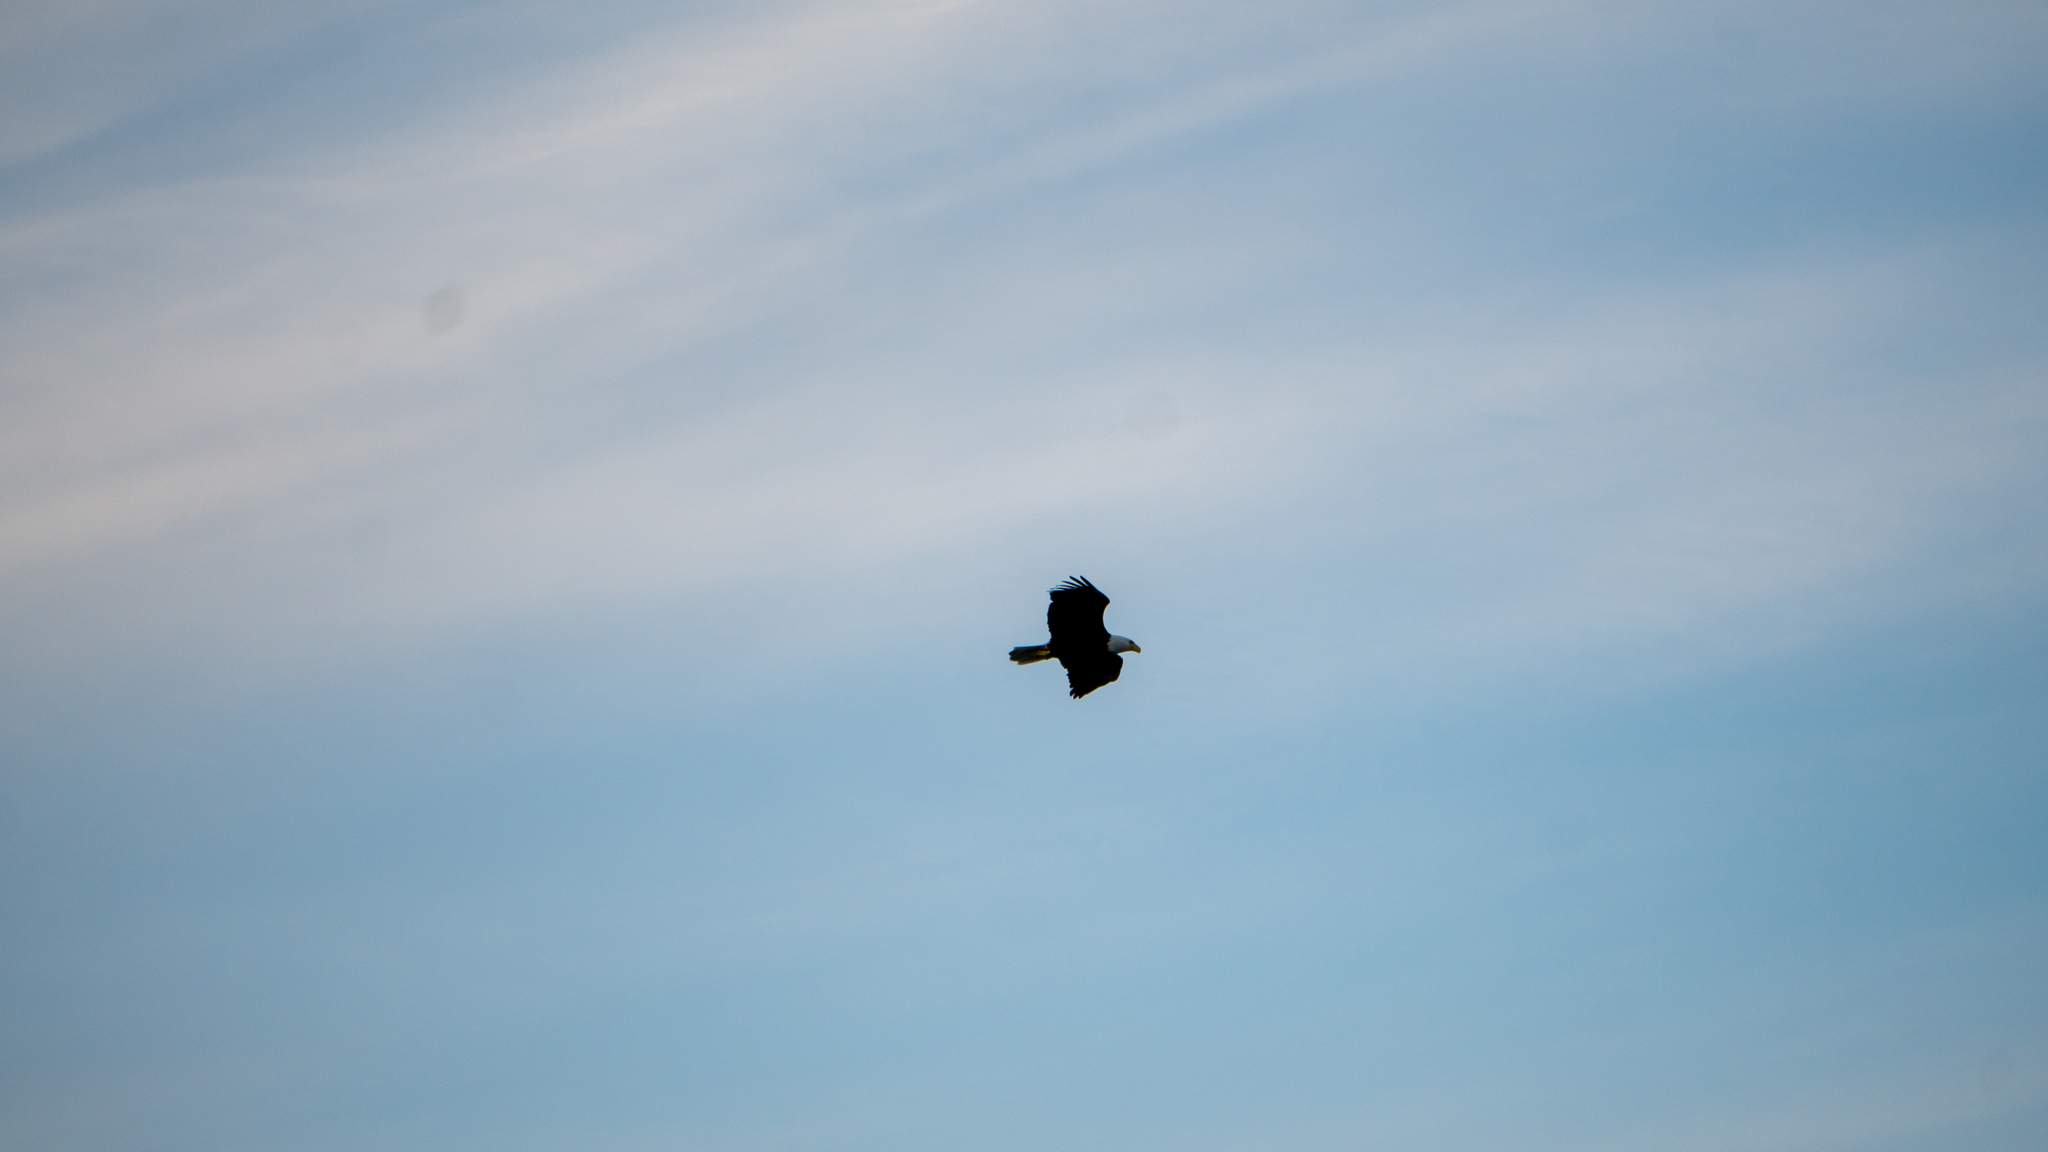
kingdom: Animalia
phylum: Chordata
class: Aves
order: Accipitriformes
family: Accipitridae
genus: Haliaeetus
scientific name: Haliaeetus leucocephalus
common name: Bald eagle
